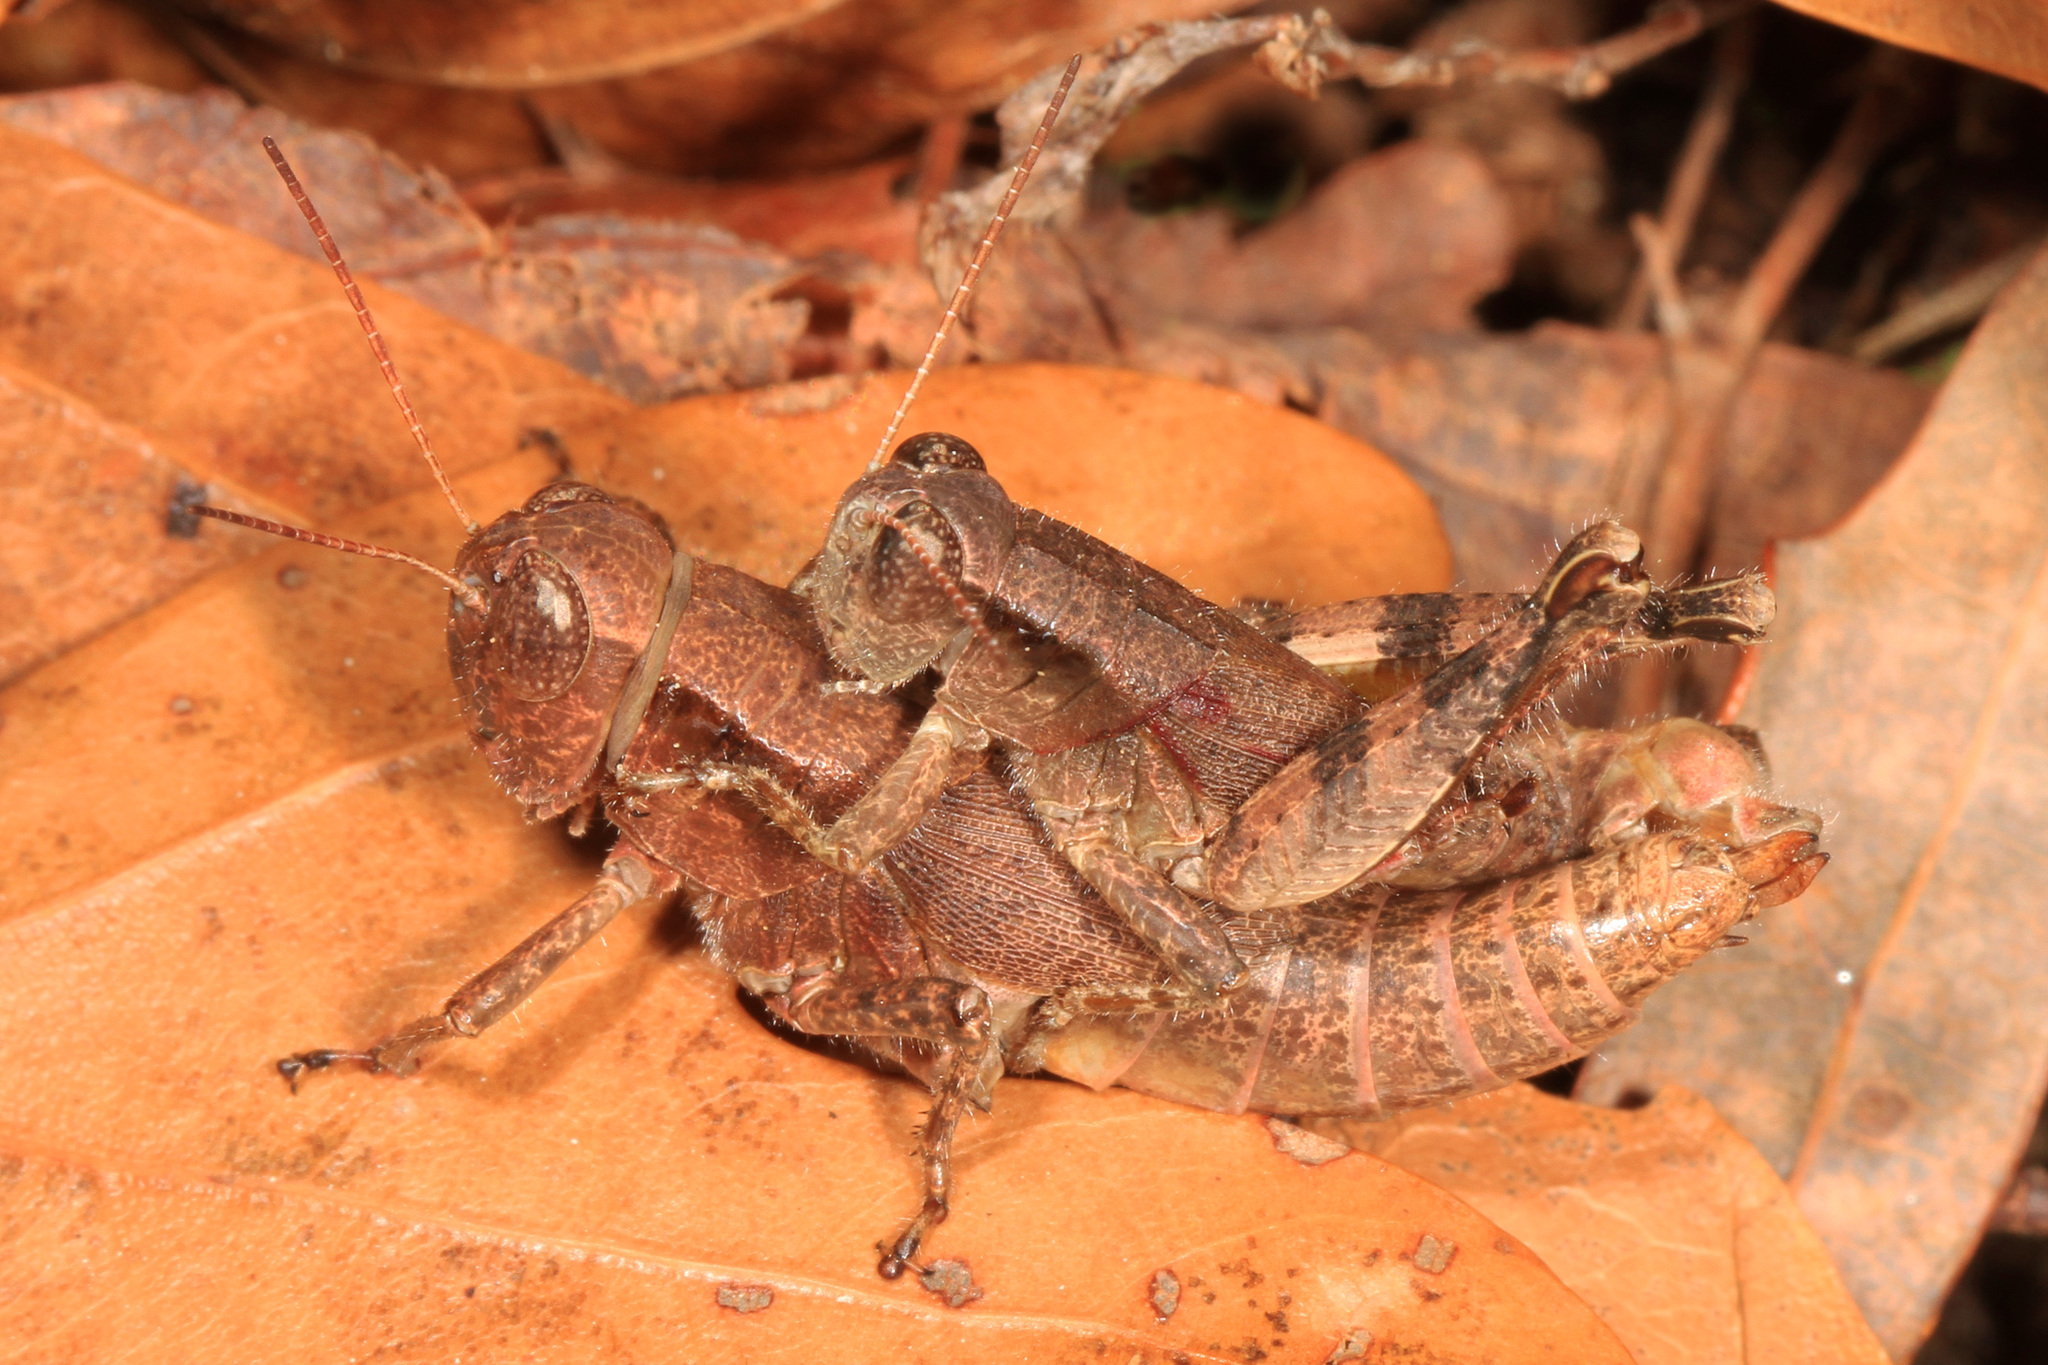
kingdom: Animalia
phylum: Arthropoda
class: Insecta
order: Orthoptera
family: Acrididae
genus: Melanoplus
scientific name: Melanoplus scudderi
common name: Scudder's short-winged locust
